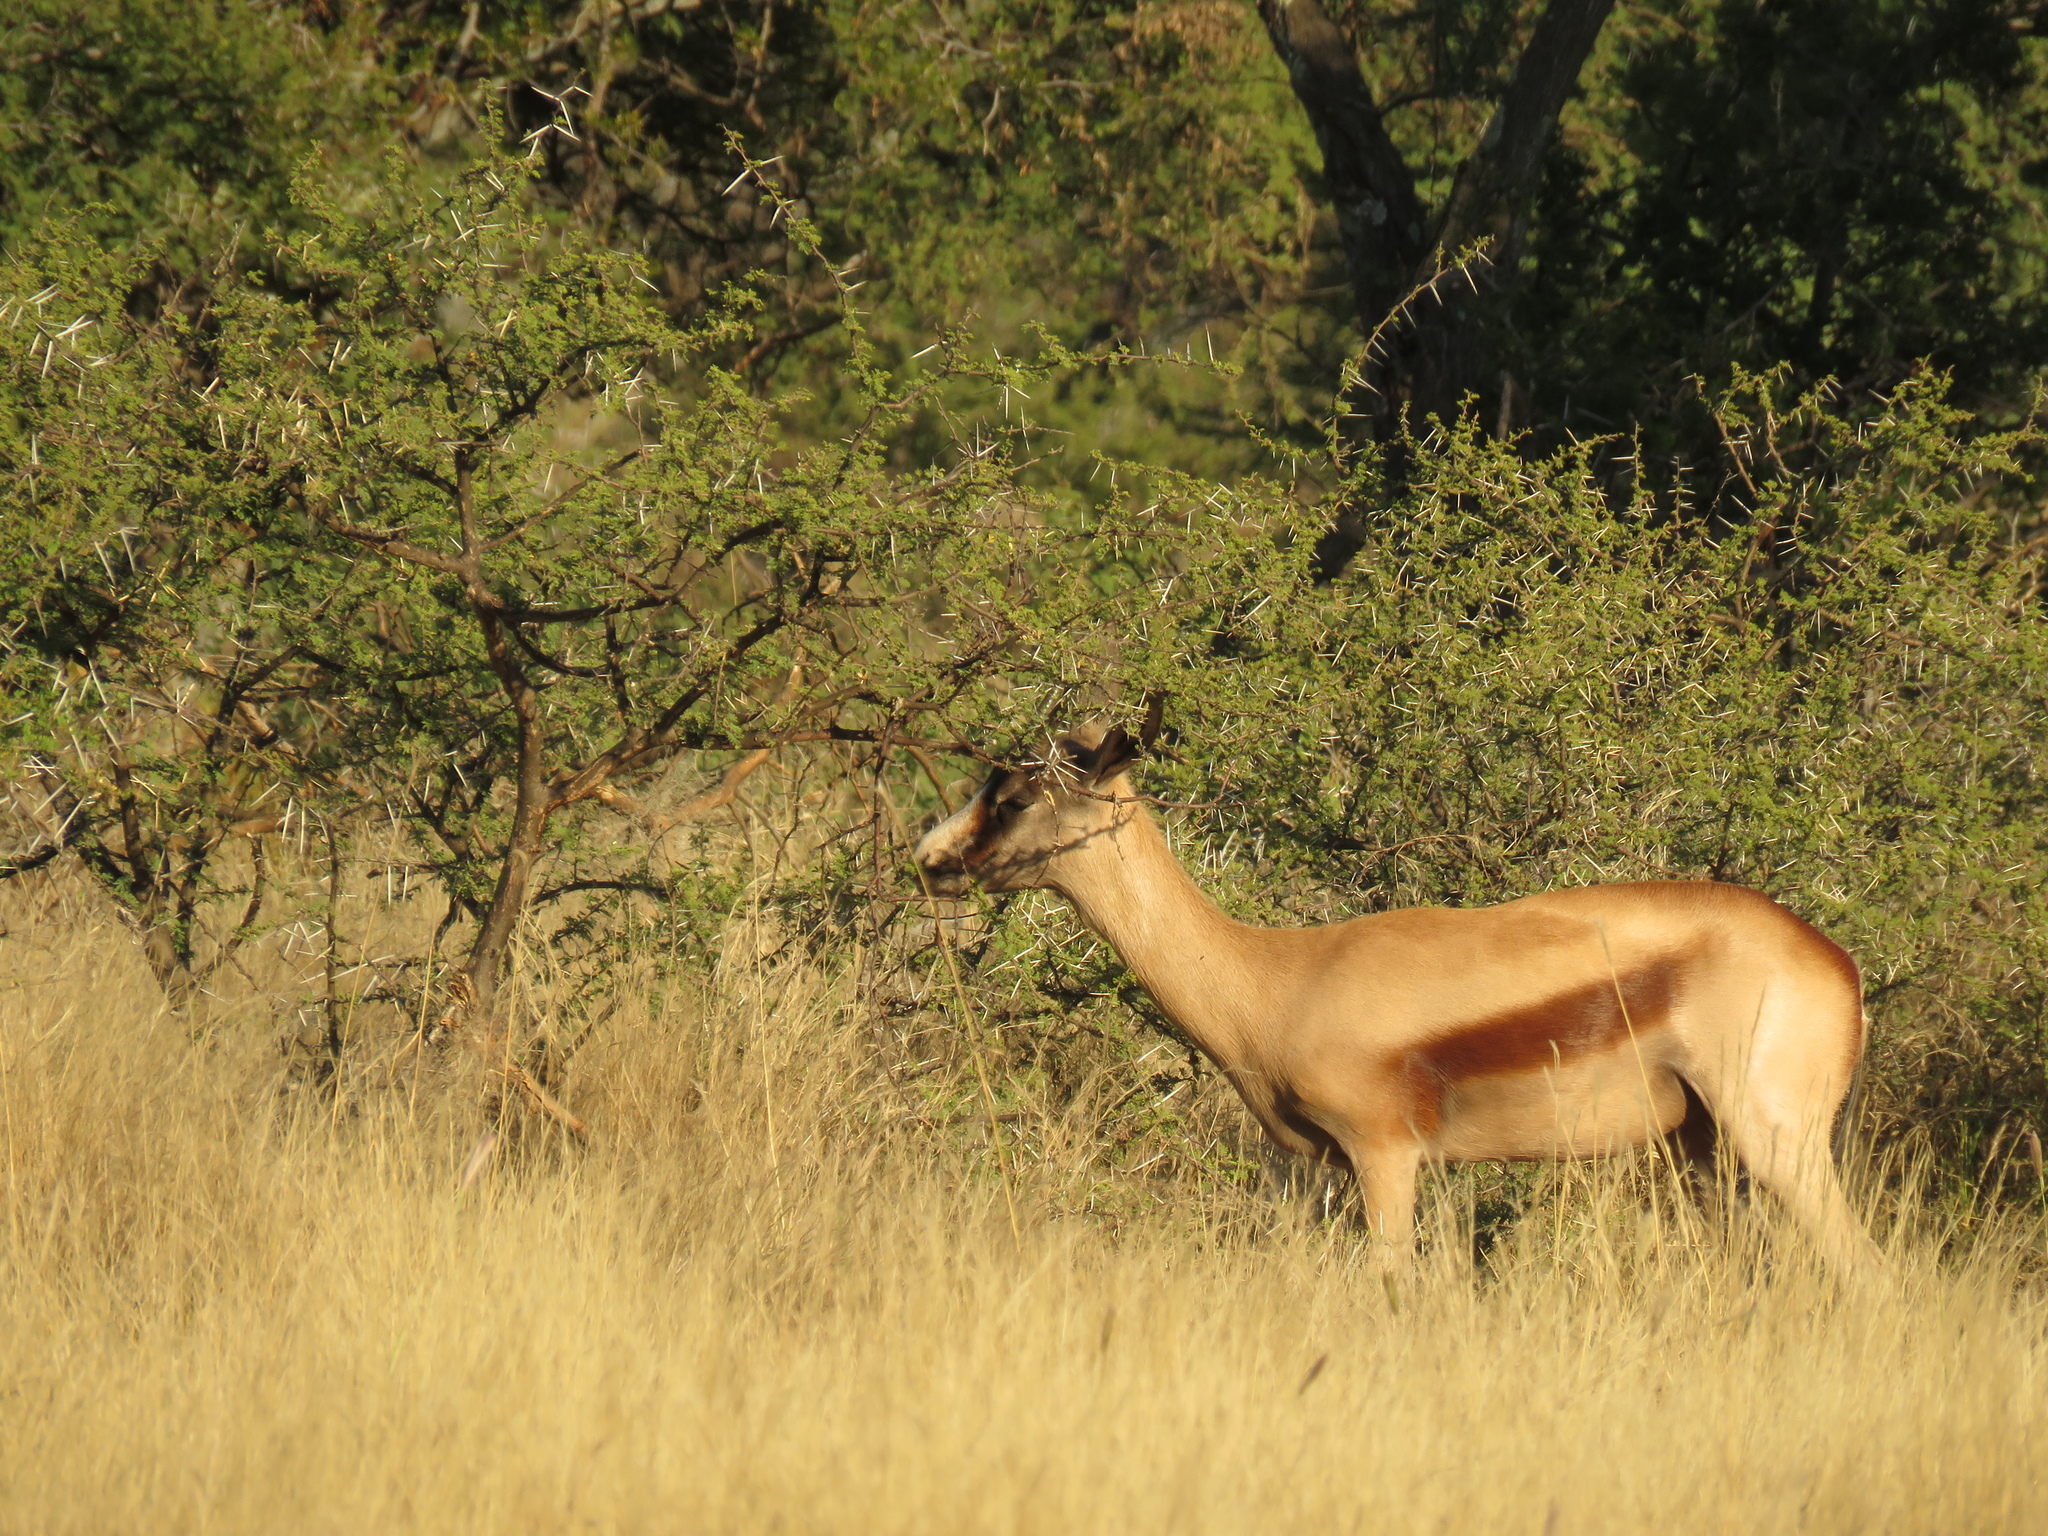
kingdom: Animalia
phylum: Chordata
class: Mammalia
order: Artiodactyla
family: Bovidae
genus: Antidorcas
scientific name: Antidorcas marsupialis
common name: Springbok
